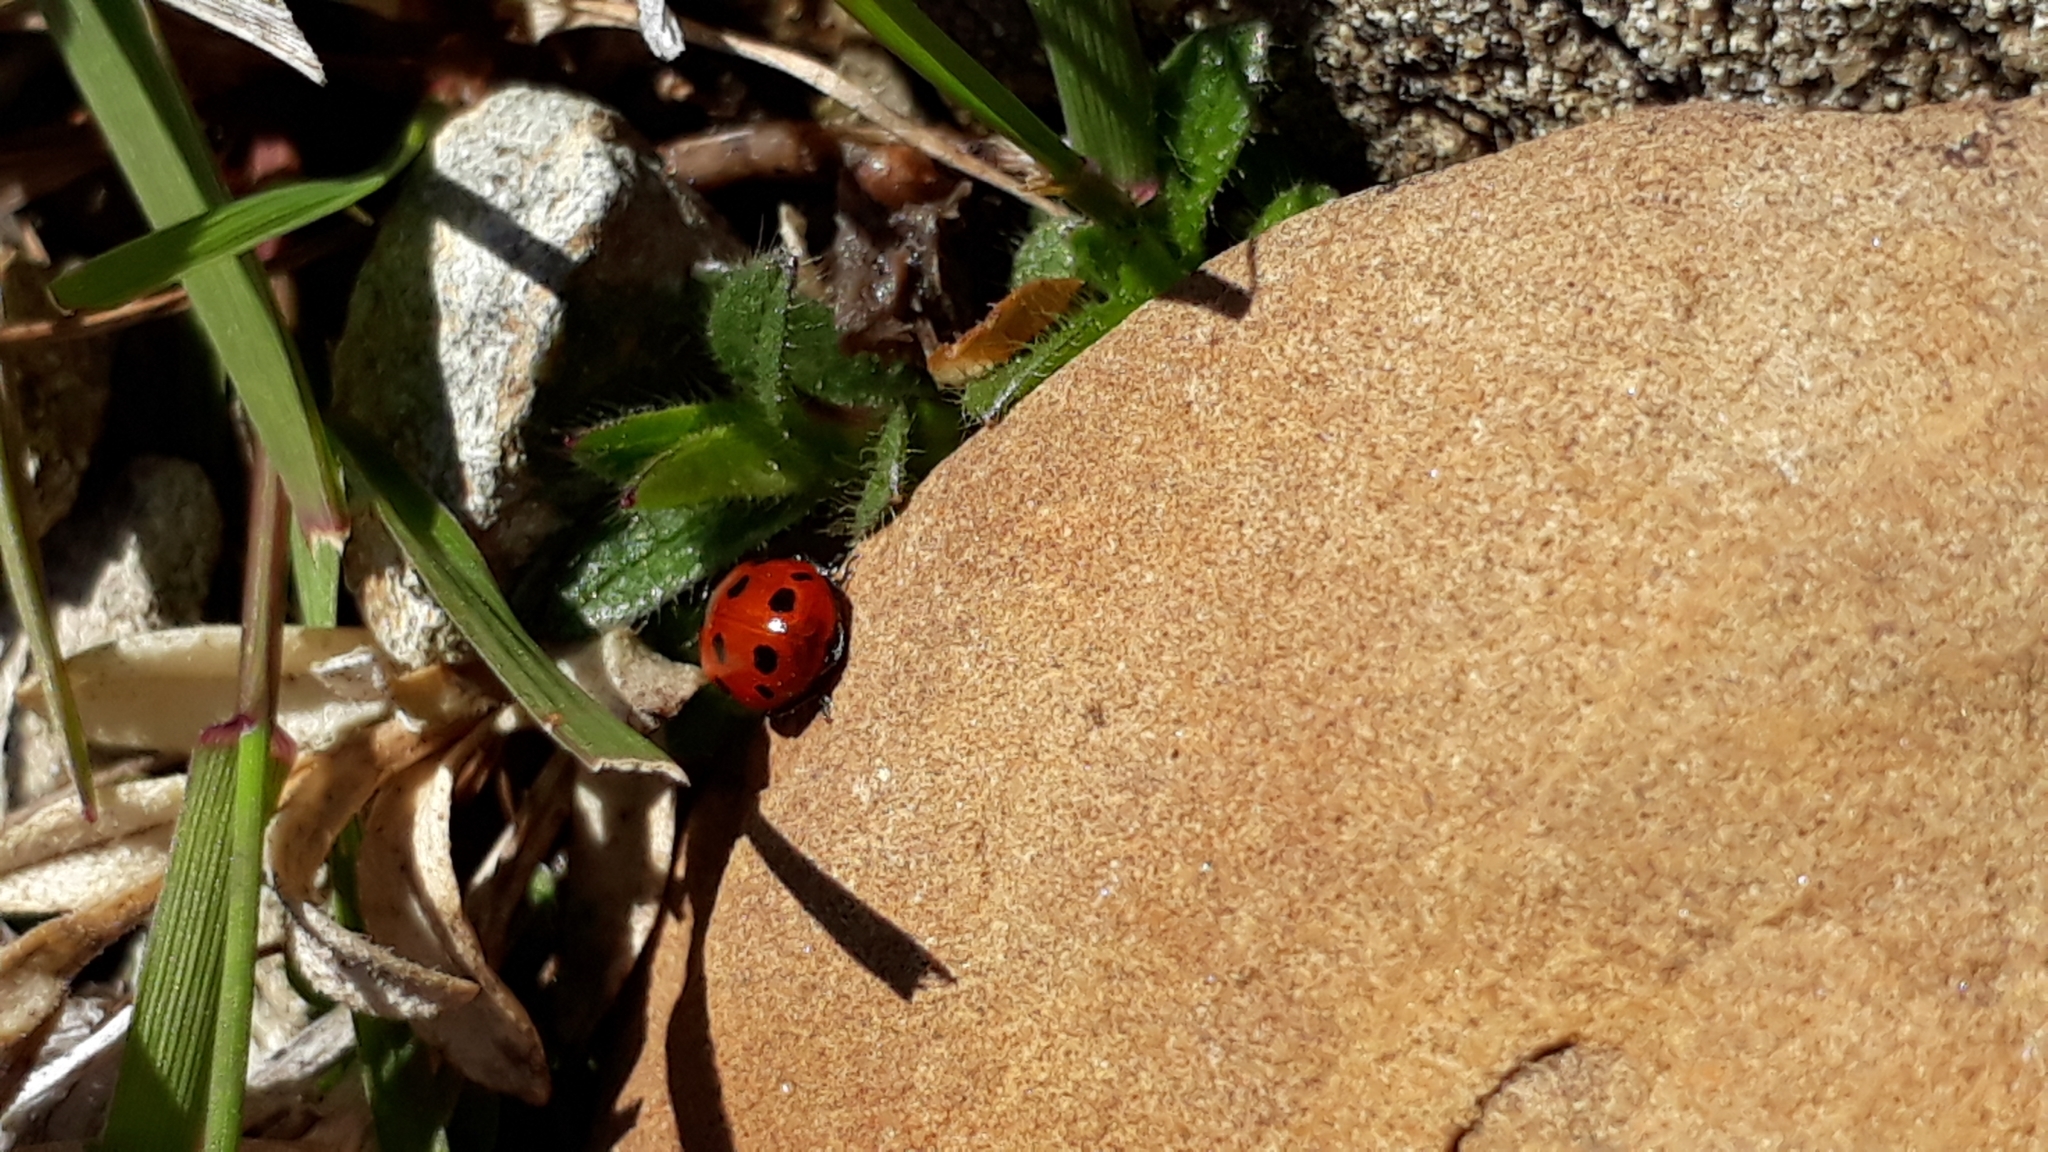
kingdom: Animalia
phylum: Arthropoda
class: Insecta
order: Coleoptera
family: Coccinellidae
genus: Coccinella
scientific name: Coccinella undecimpunctata
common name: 11-spot ladybird
